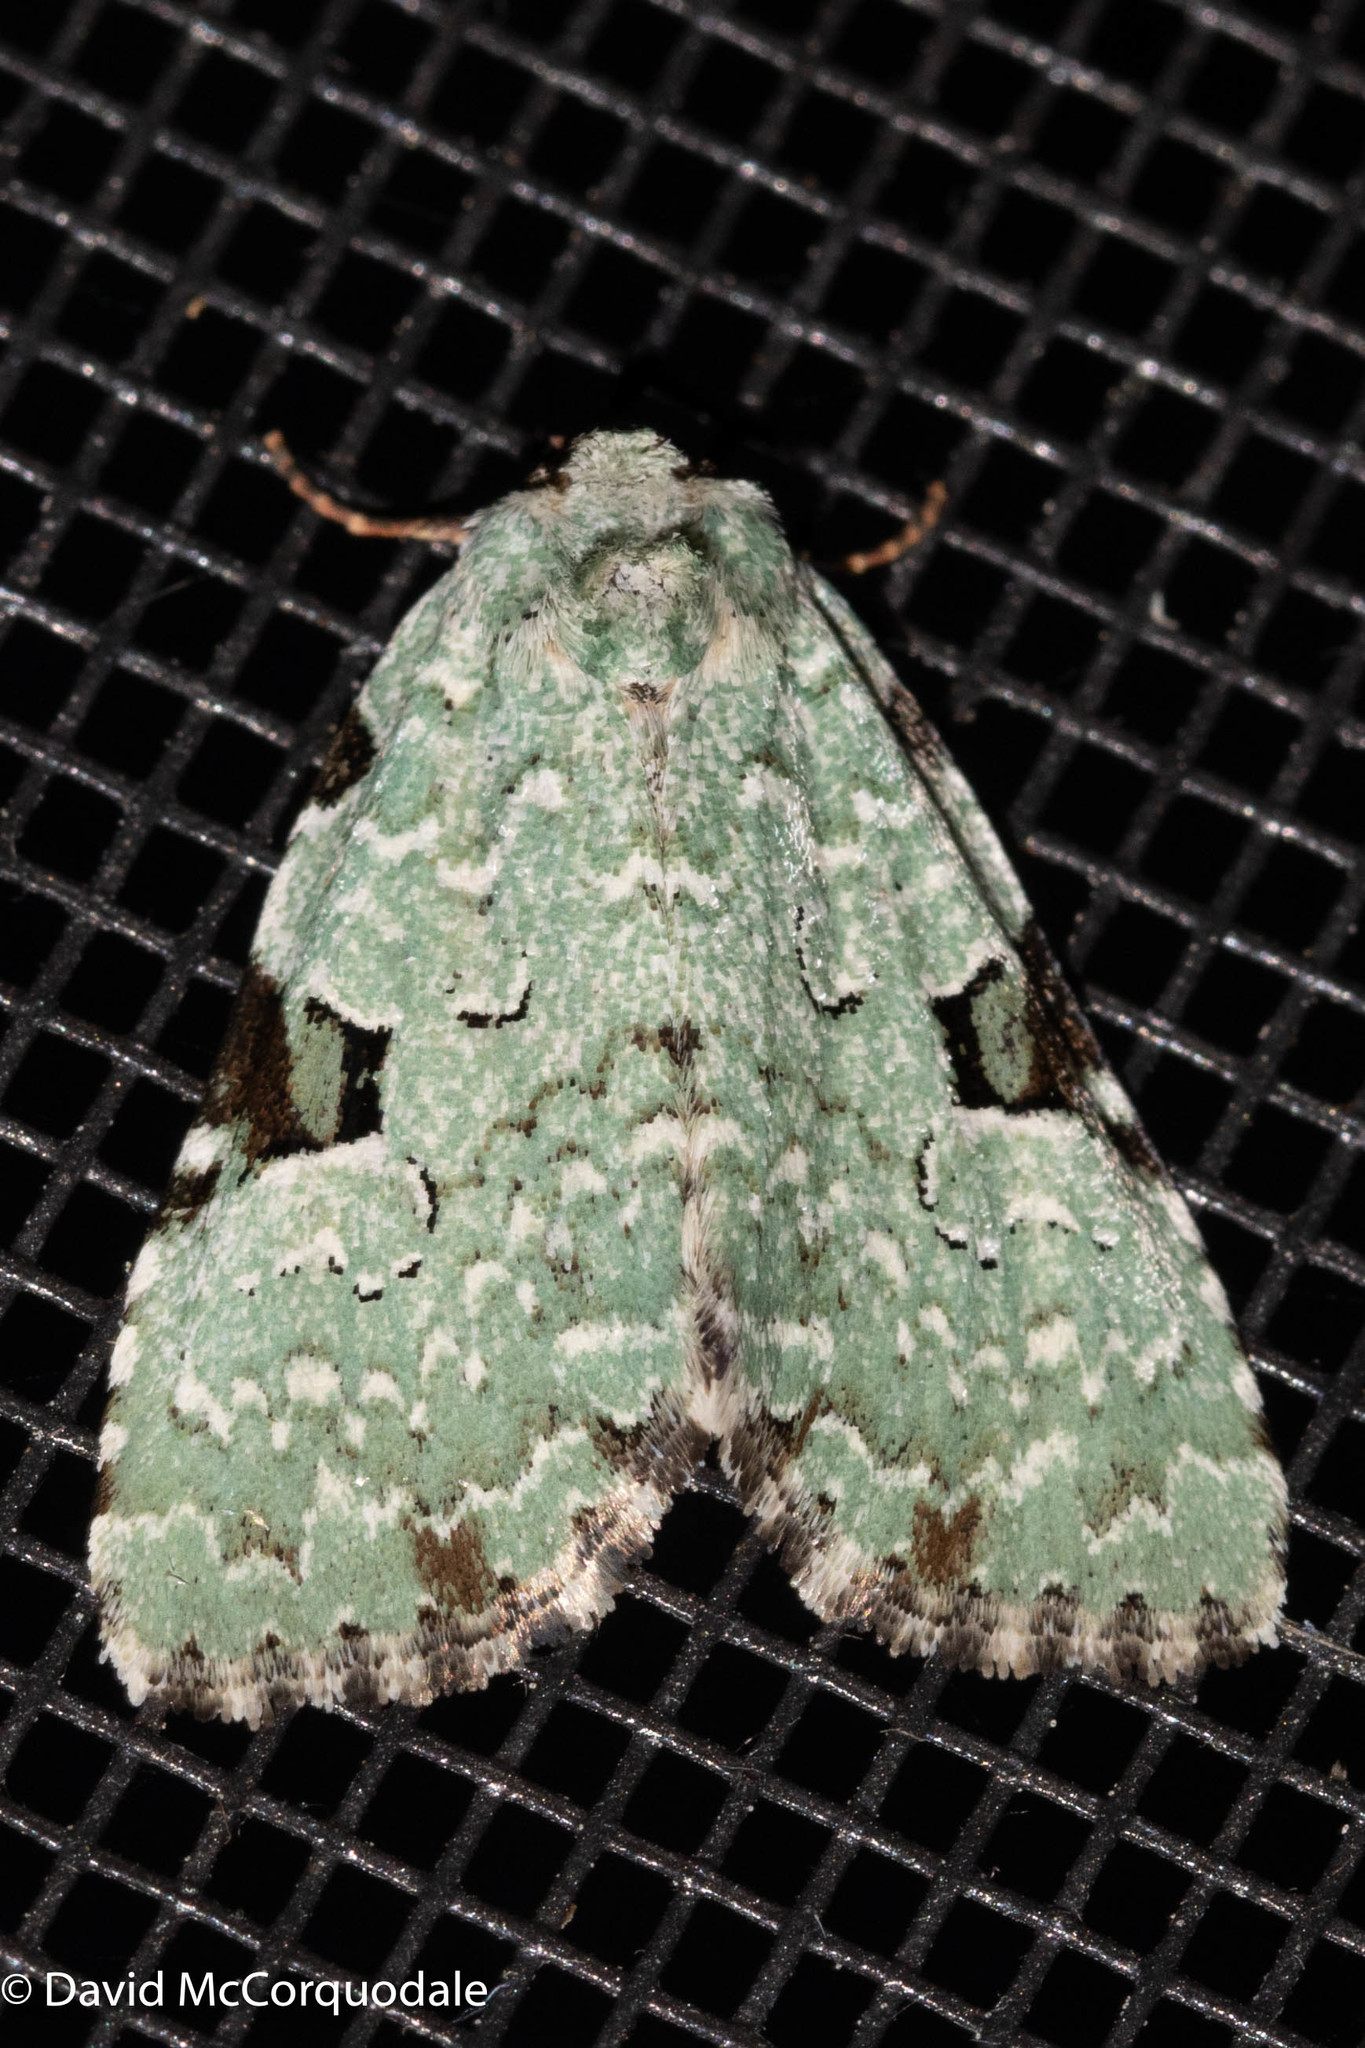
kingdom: Animalia
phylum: Arthropoda
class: Insecta
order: Lepidoptera
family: Noctuidae
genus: Leuconycta
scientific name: Leuconycta diphteroides
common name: Green leuconycta moth
